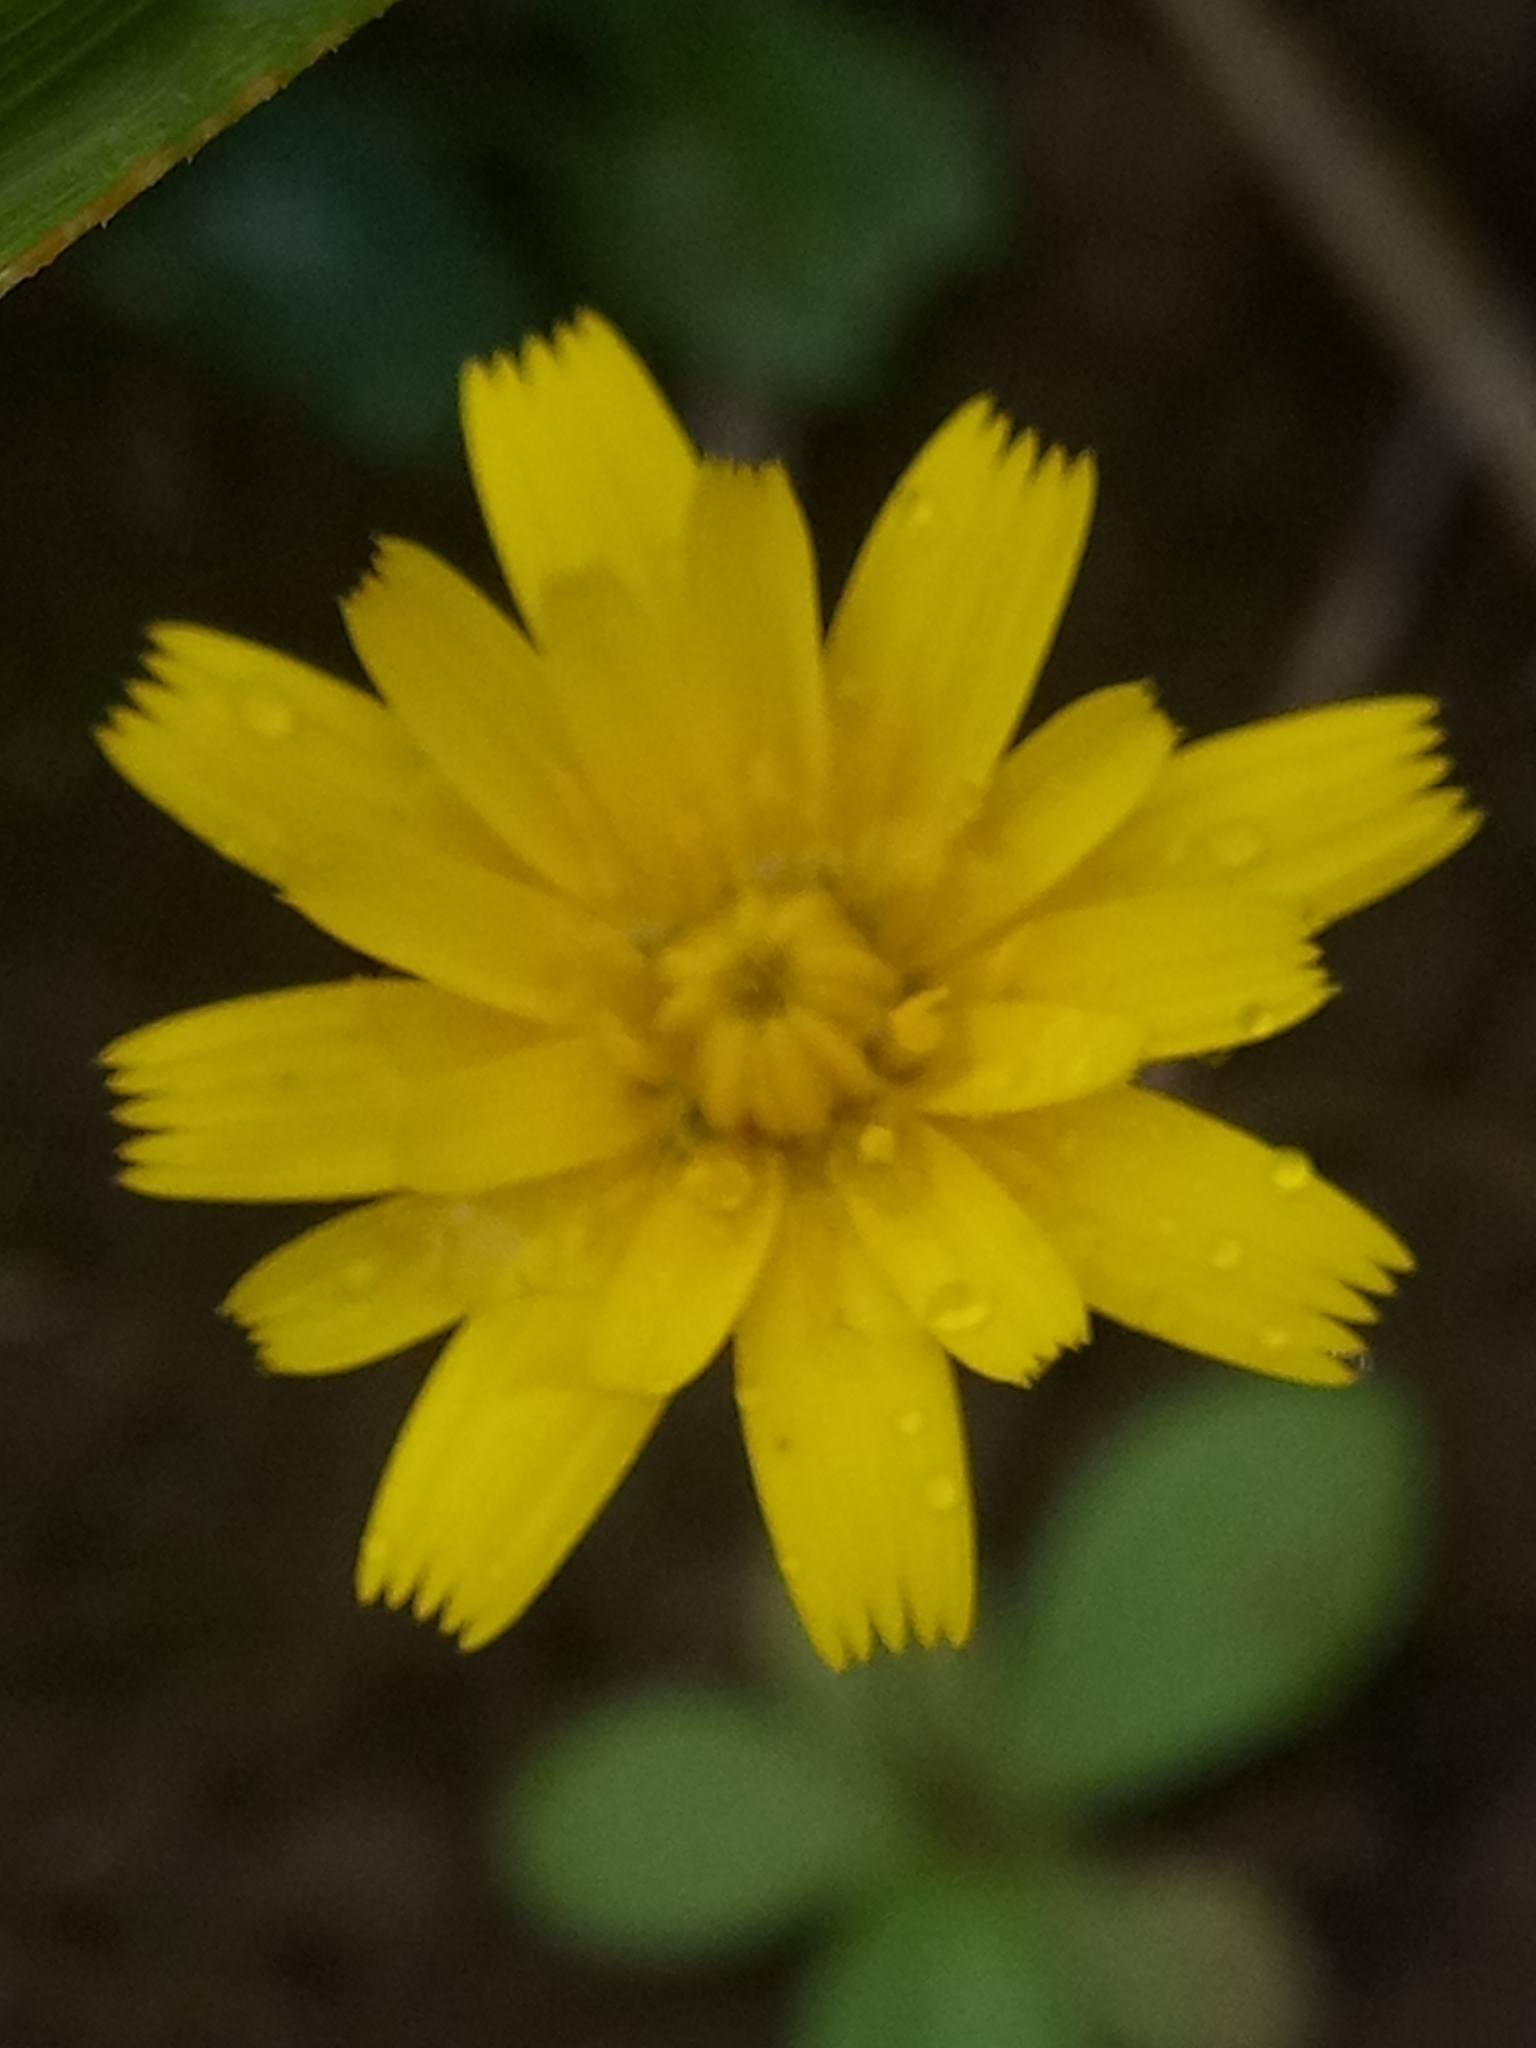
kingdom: Plantae
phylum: Tracheophyta
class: Magnoliopsida
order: Asterales
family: Asteraceae
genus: Hypochaeris
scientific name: Hypochaeris radicata
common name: Flatweed
